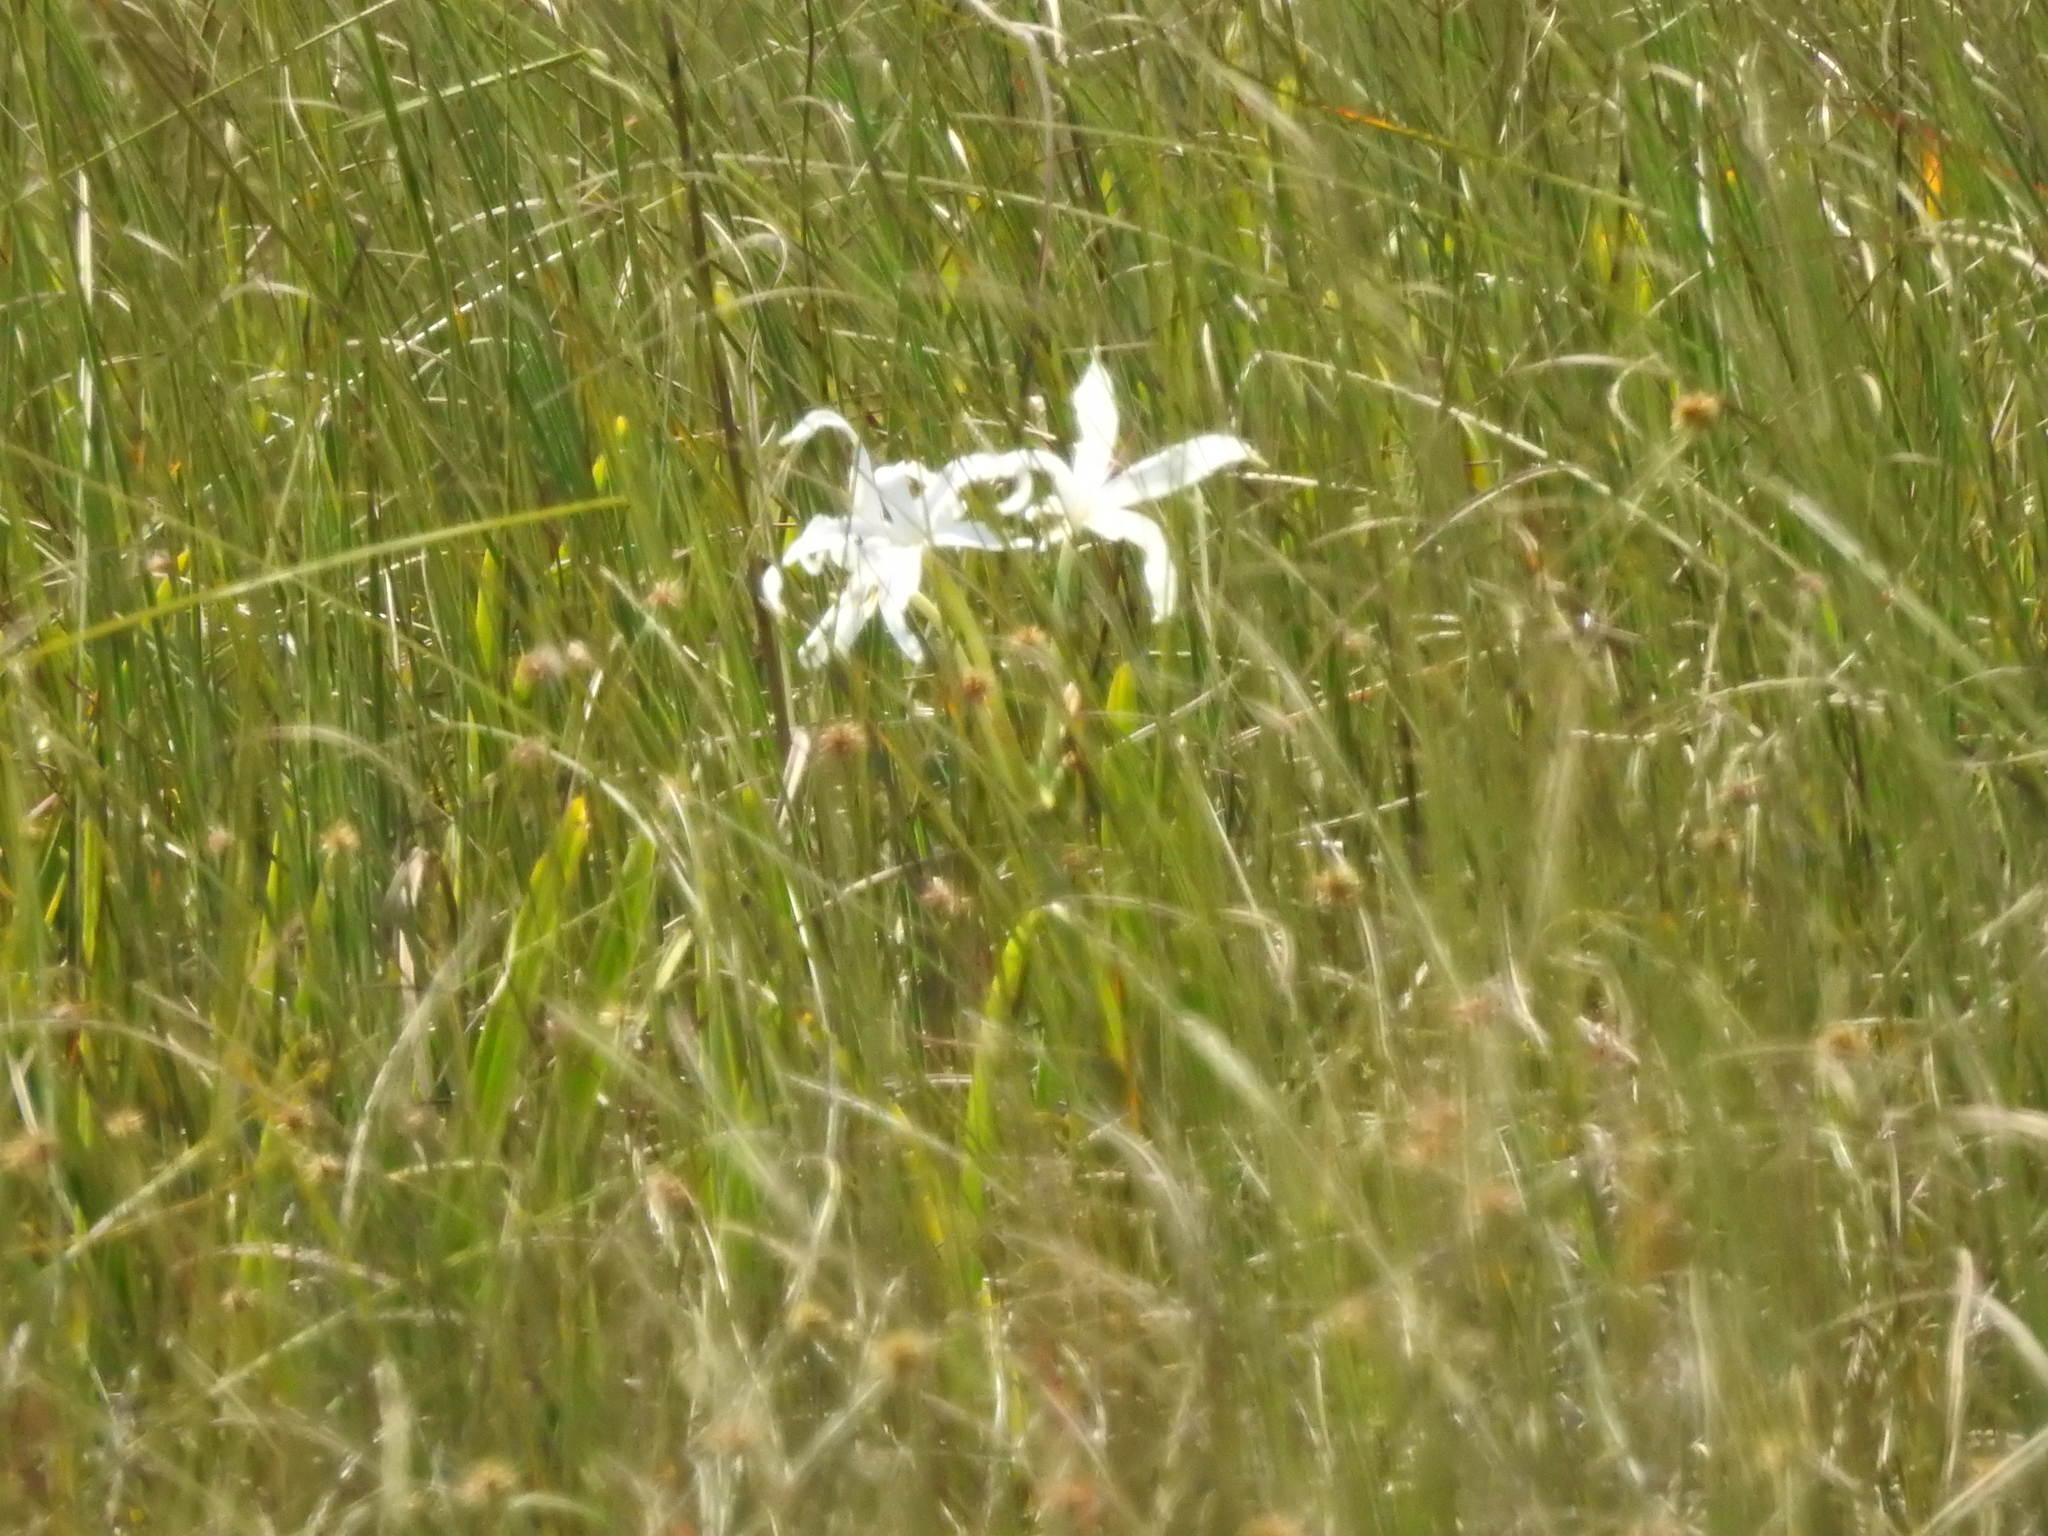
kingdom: Plantae
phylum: Tracheophyta
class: Liliopsida
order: Asparagales
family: Amaryllidaceae
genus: Crinum
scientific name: Crinum americanum
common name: Florida swamp-lily
